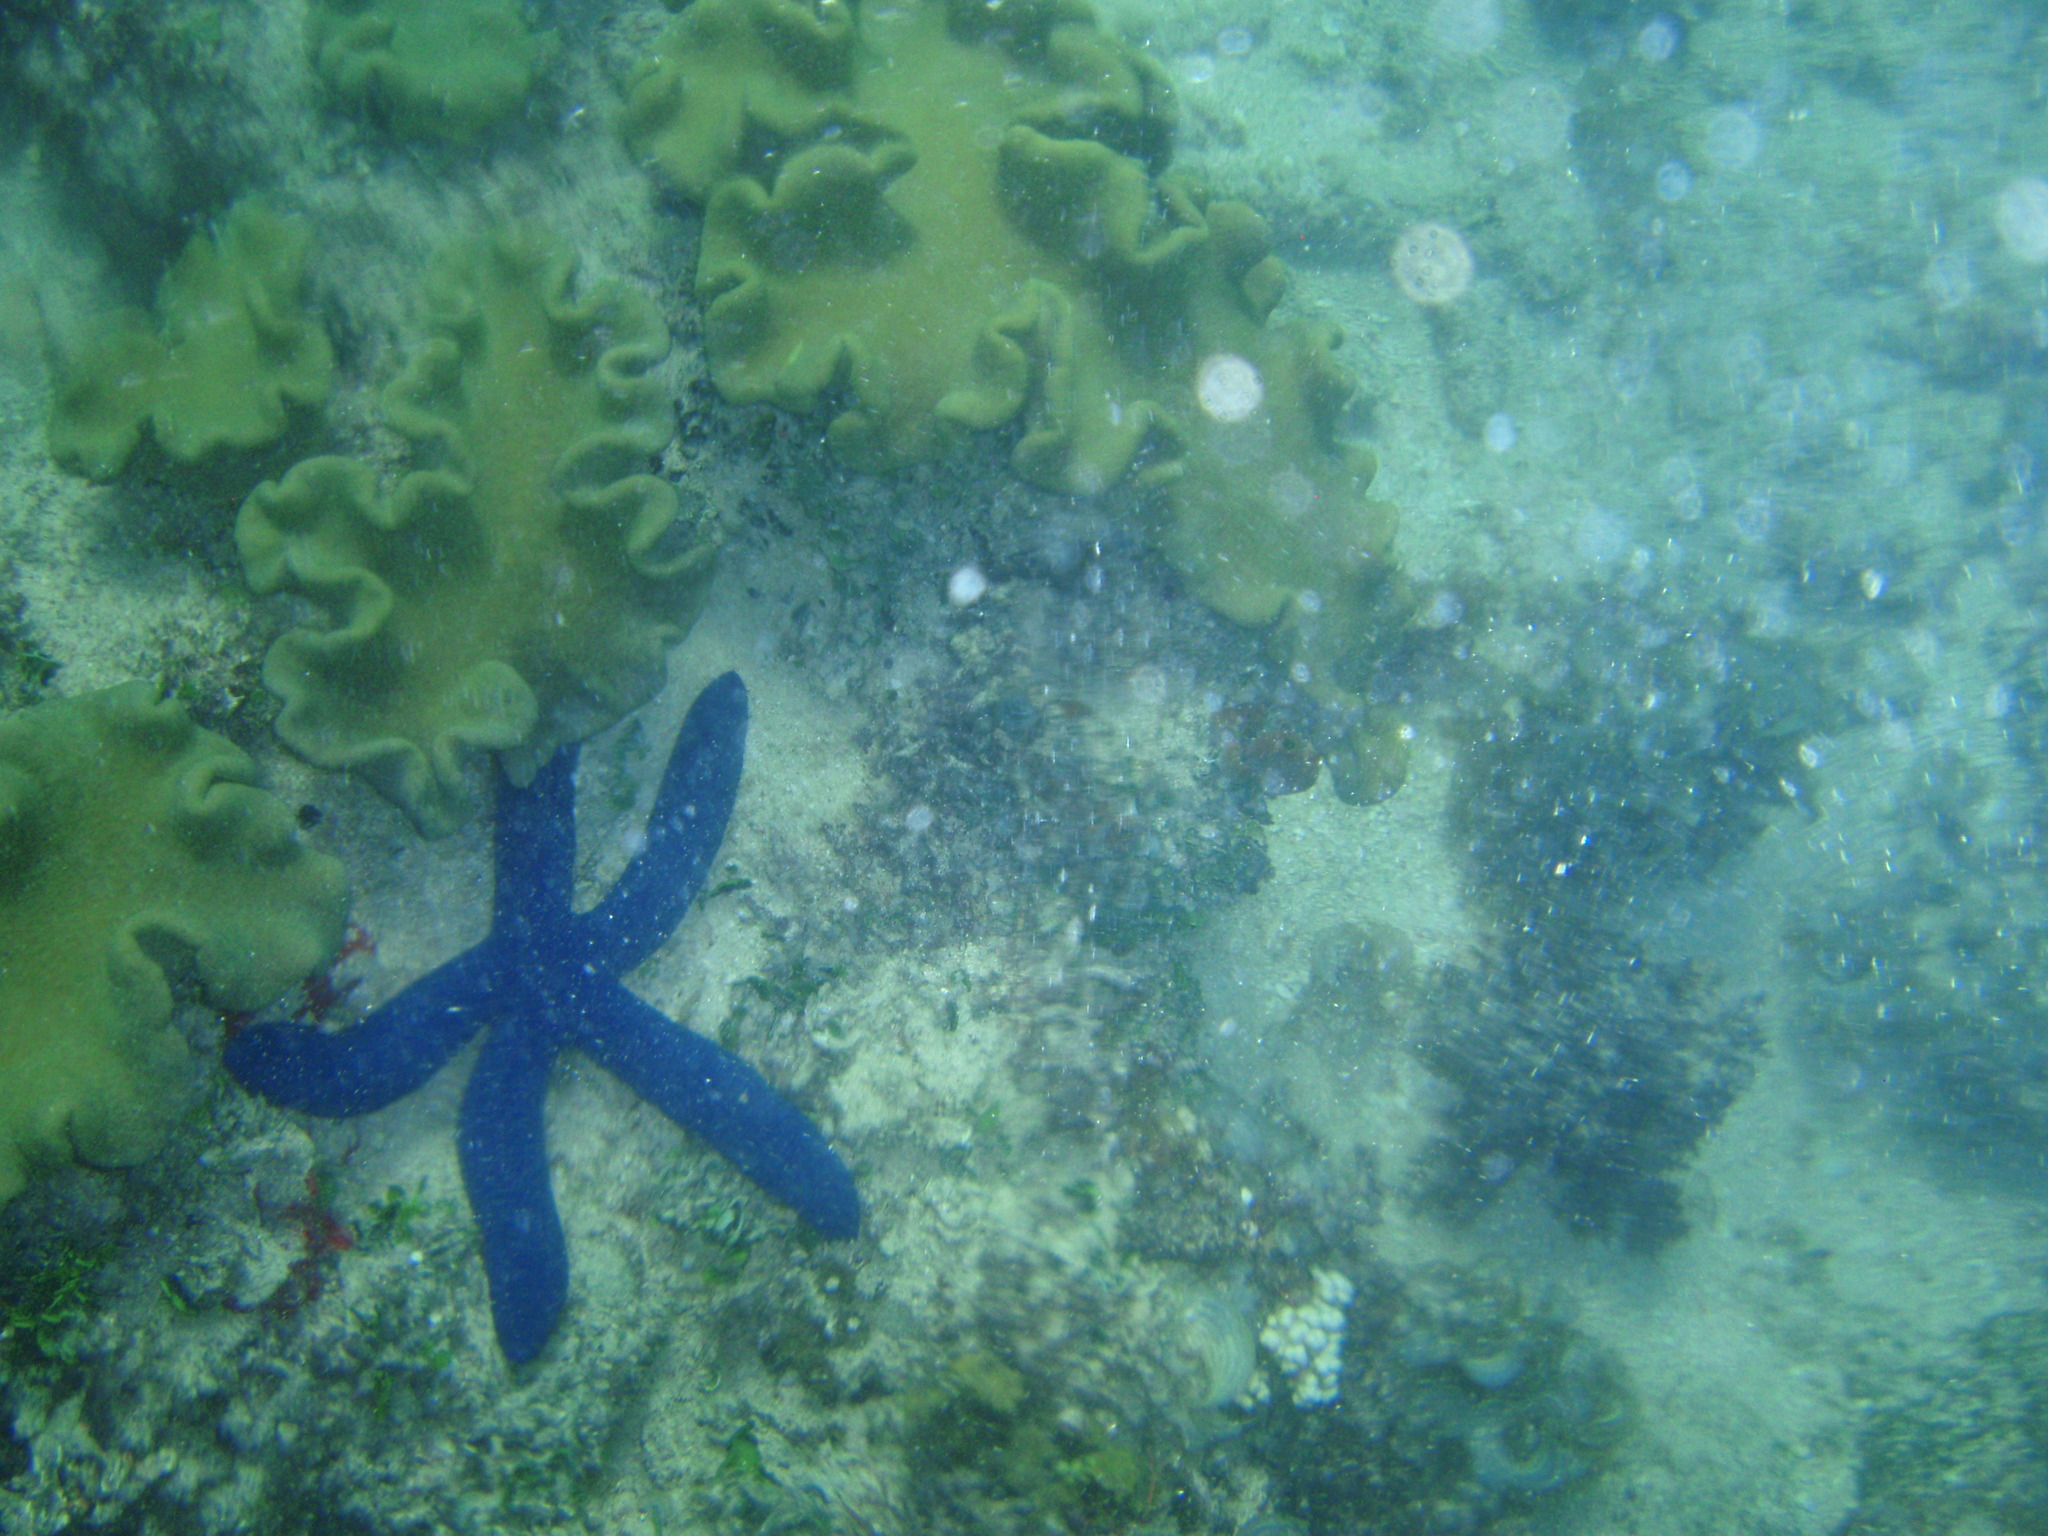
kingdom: Animalia
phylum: Echinodermata
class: Asteroidea
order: Valvatida
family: Ophidiasteridae
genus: Linckia
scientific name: Linckia laevigata
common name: Azure sea star
